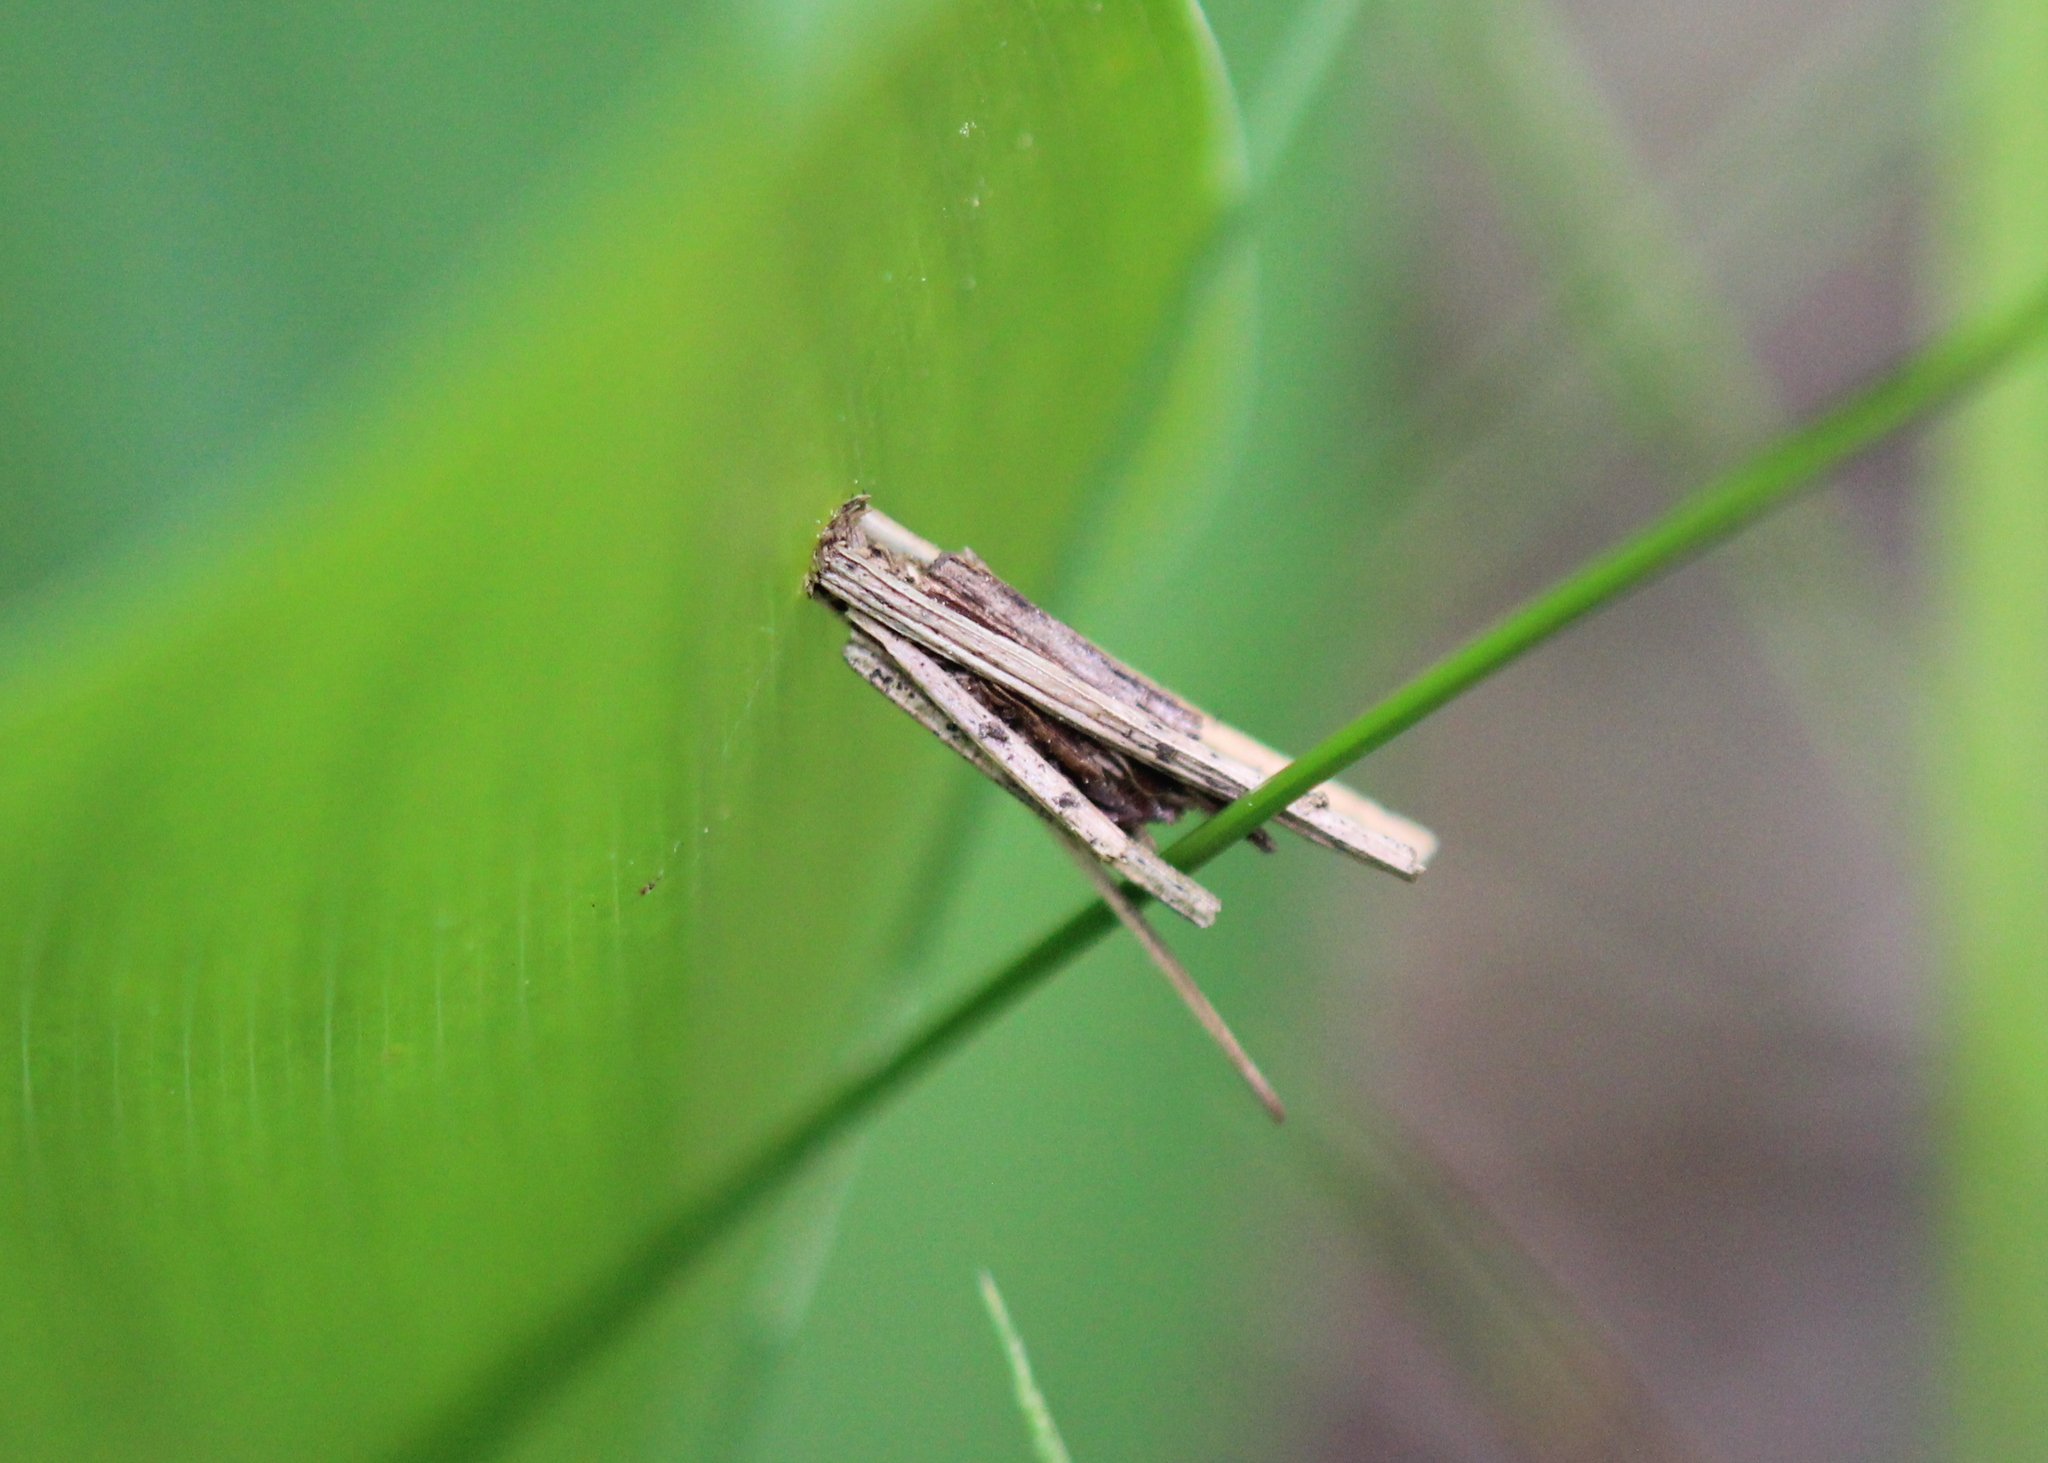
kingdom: Animalia
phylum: Arthropoda
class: Insecta
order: Lepidoptera
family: Psychidae
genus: Psyche
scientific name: Psyche casta
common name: Common sweep
